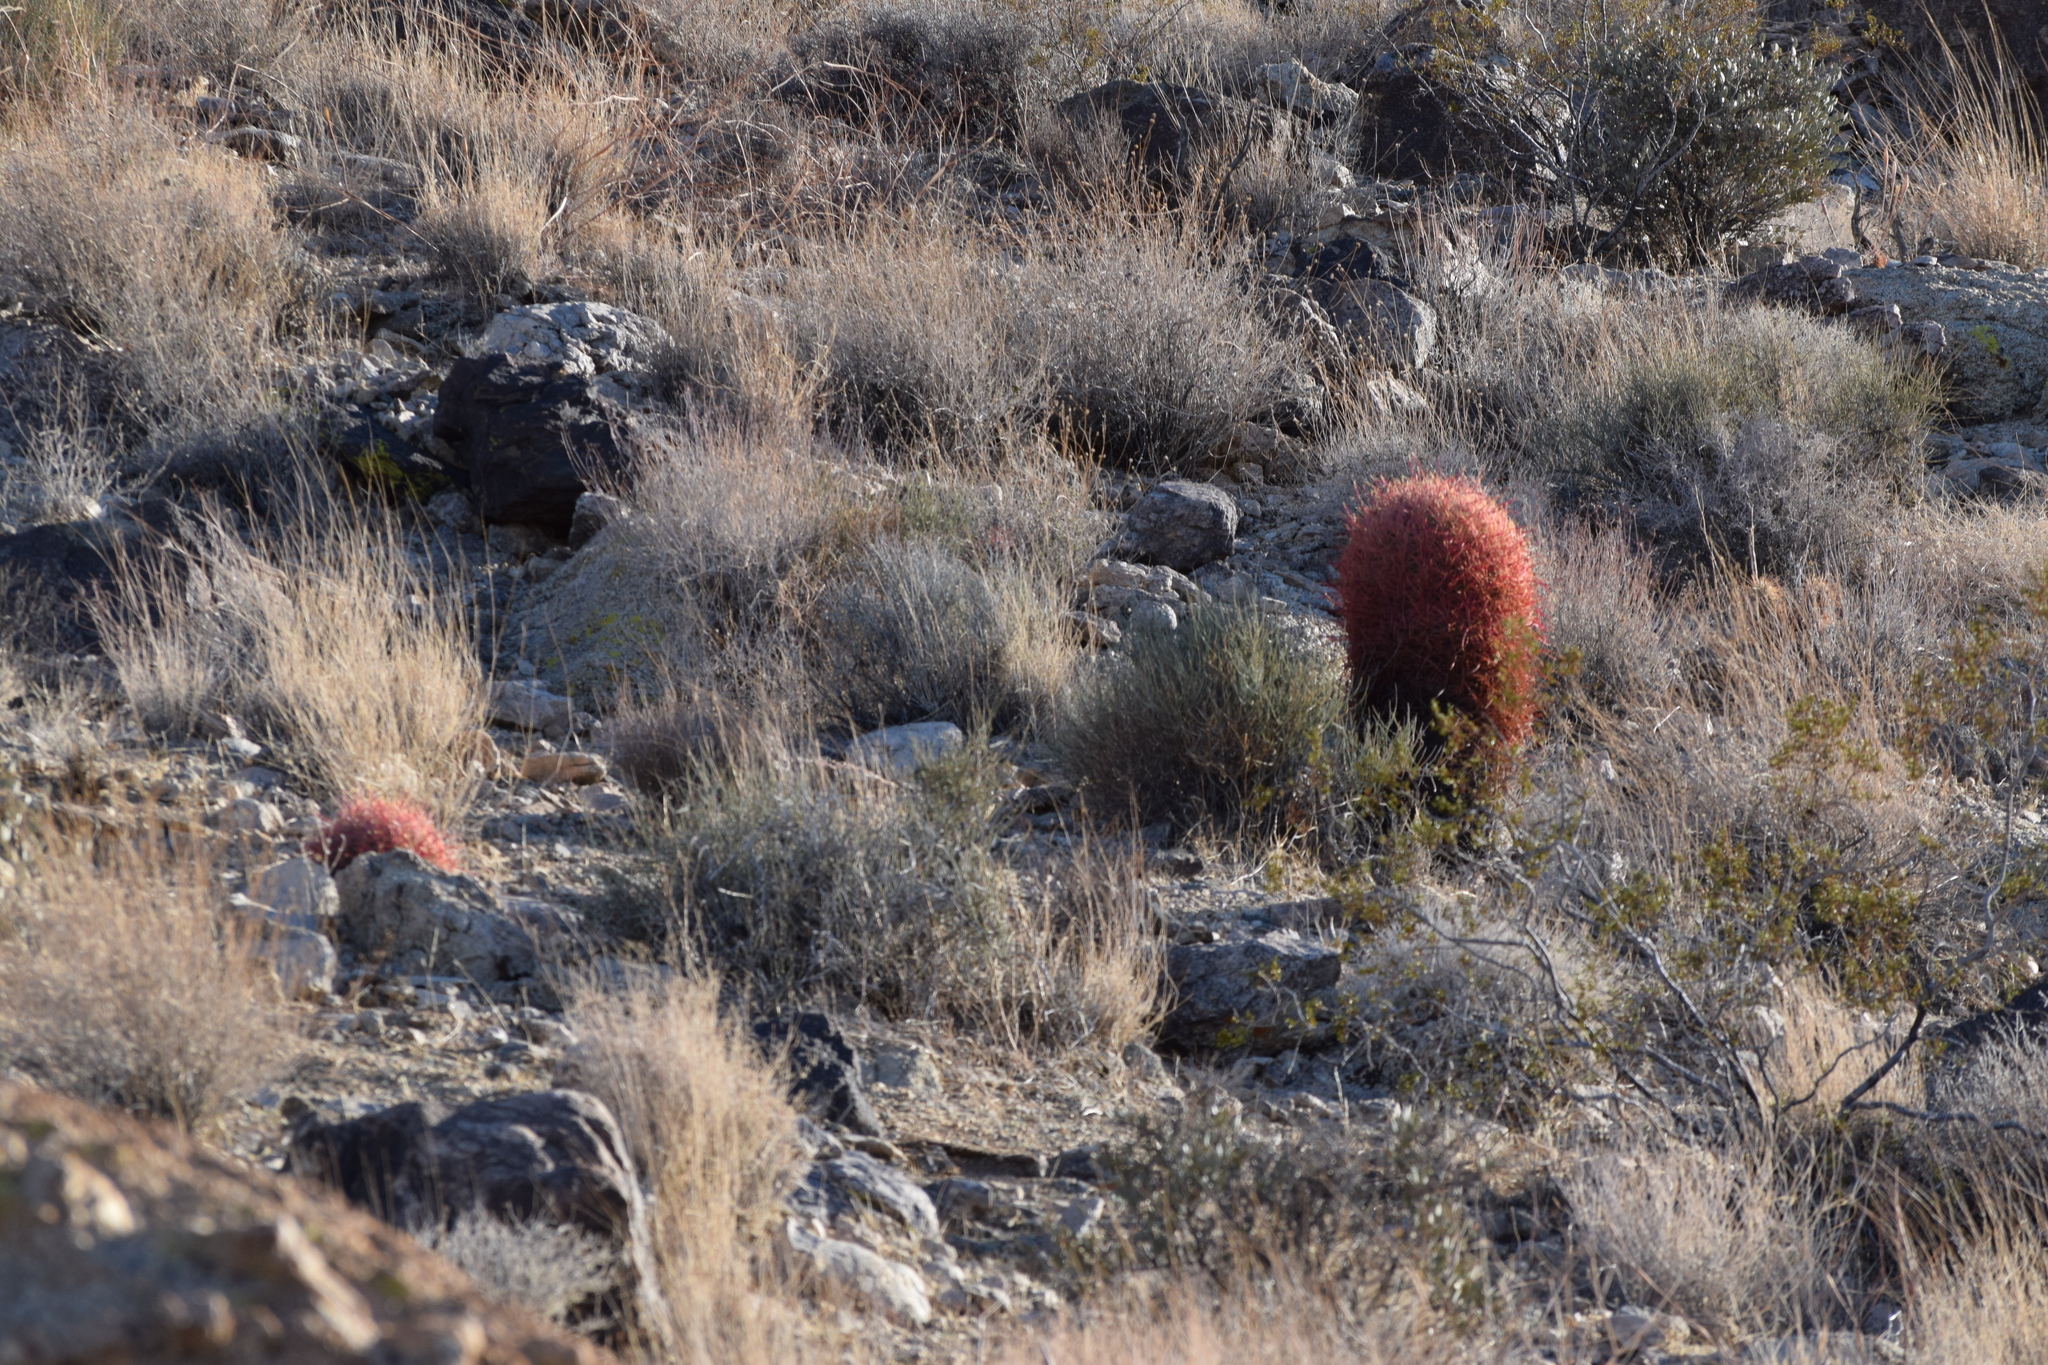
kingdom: Plantae
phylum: Tracheophyta
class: Magnoliopsida
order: Caryophyllales
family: Cactaceae
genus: Ferocactus
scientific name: Ferocactus cylindraceus
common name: California barrel cactus
